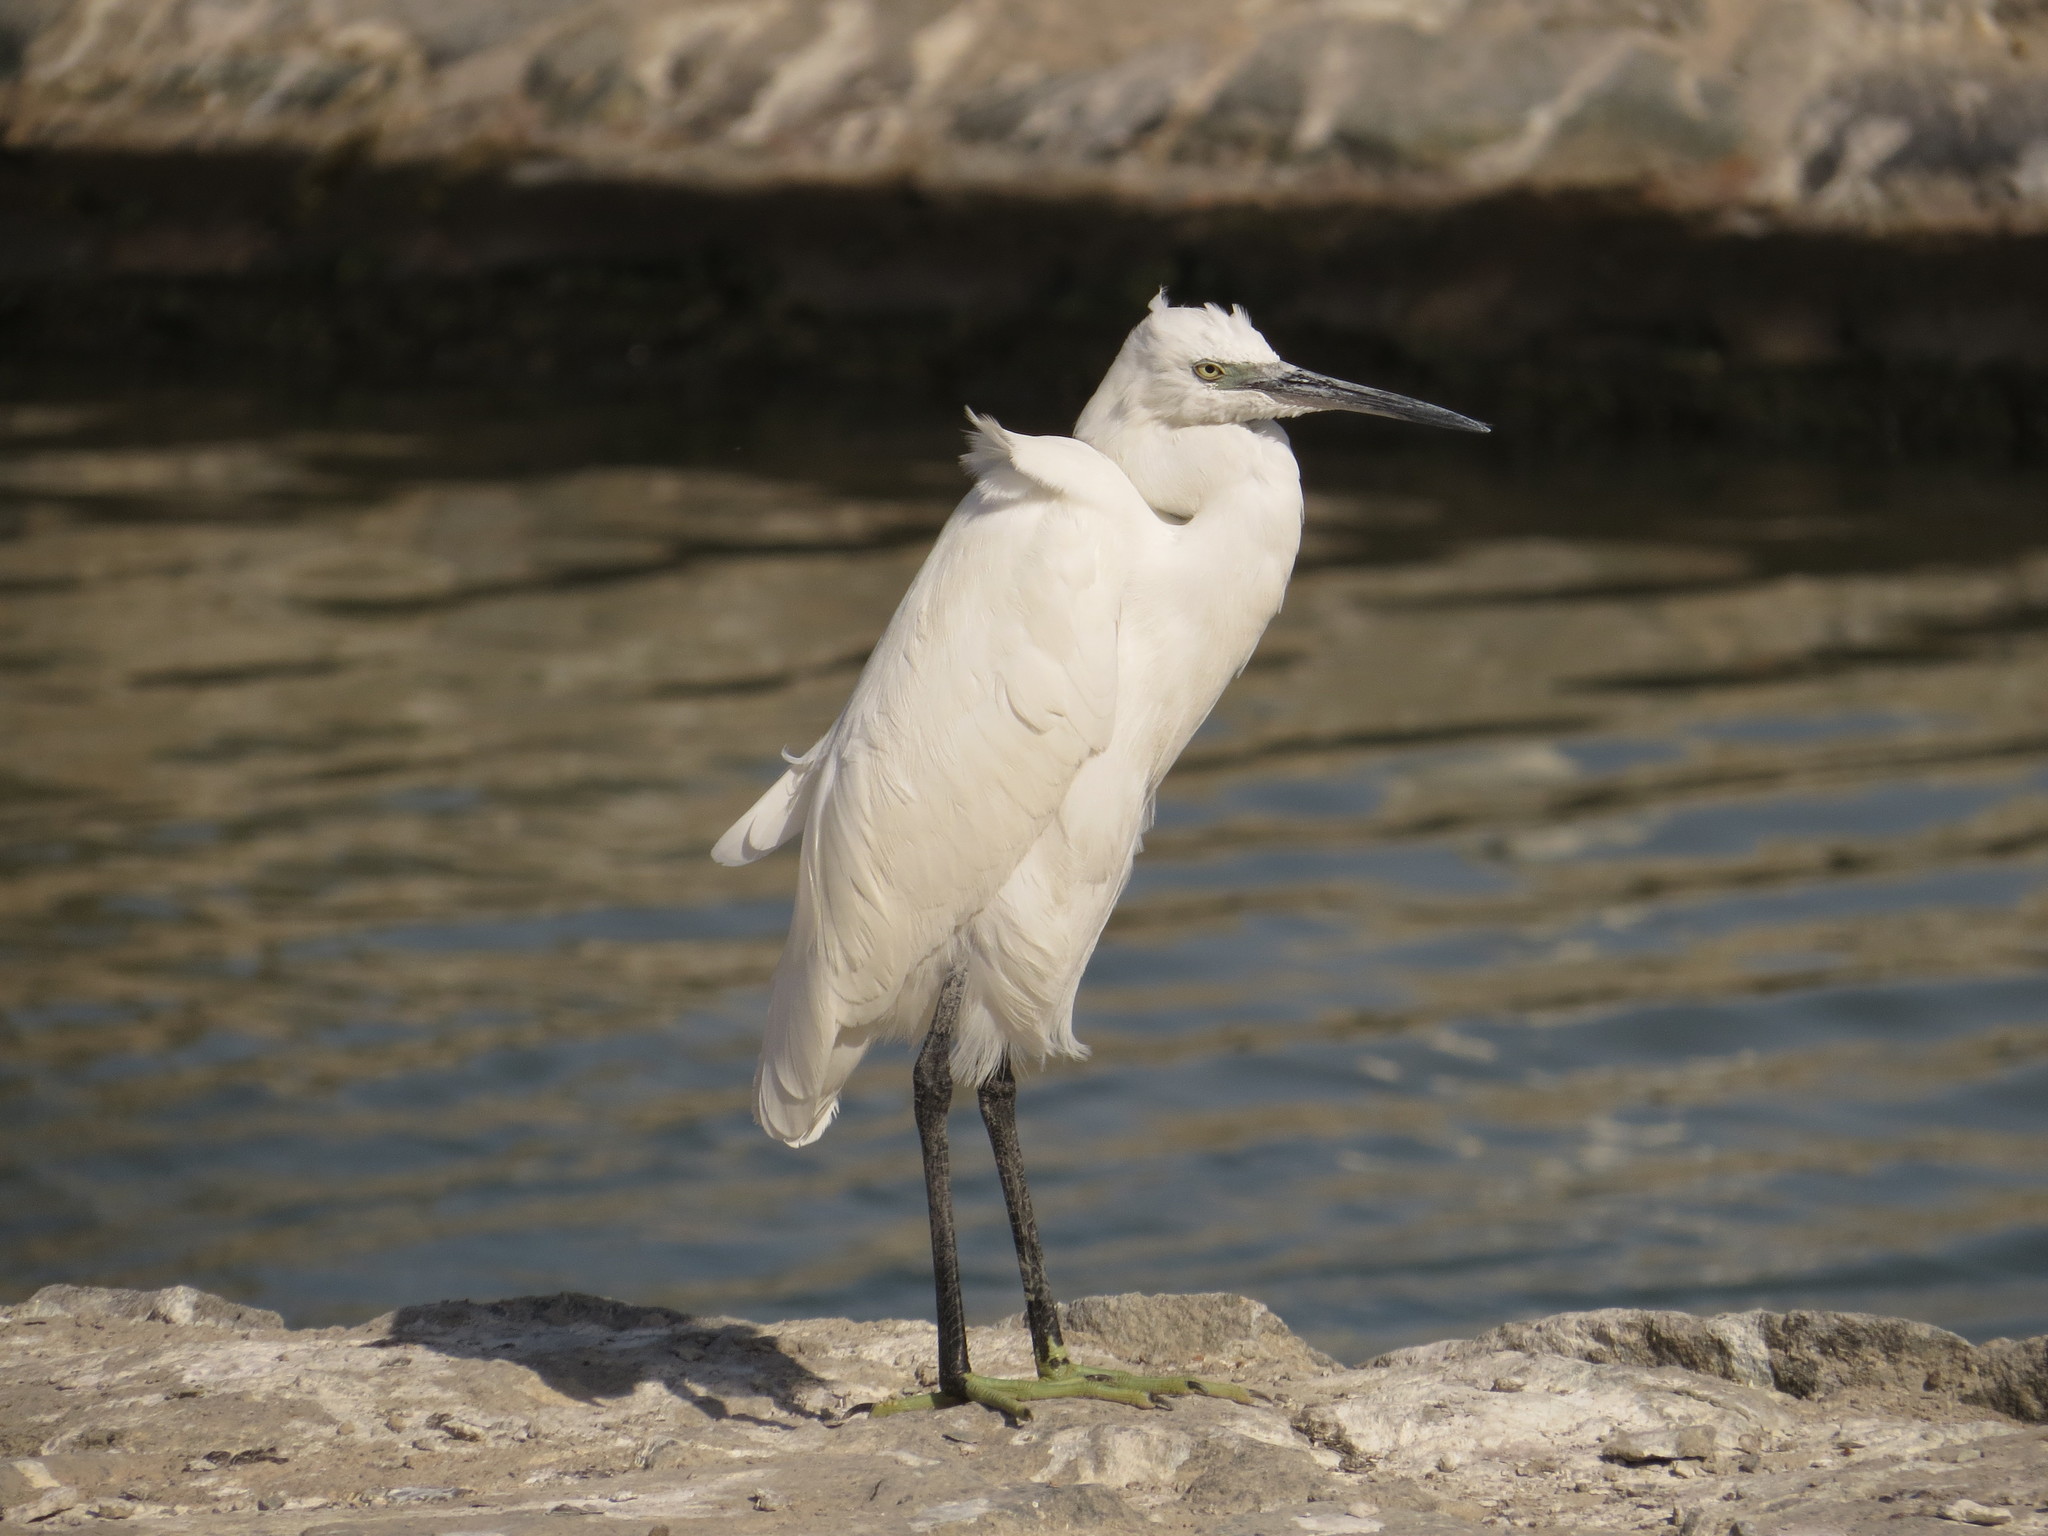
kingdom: Animalia
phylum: Chordata
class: Aves
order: Pelecaniformes
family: Ardeidae
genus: Egretta
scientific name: Egretta gularis
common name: Western reef-heron
